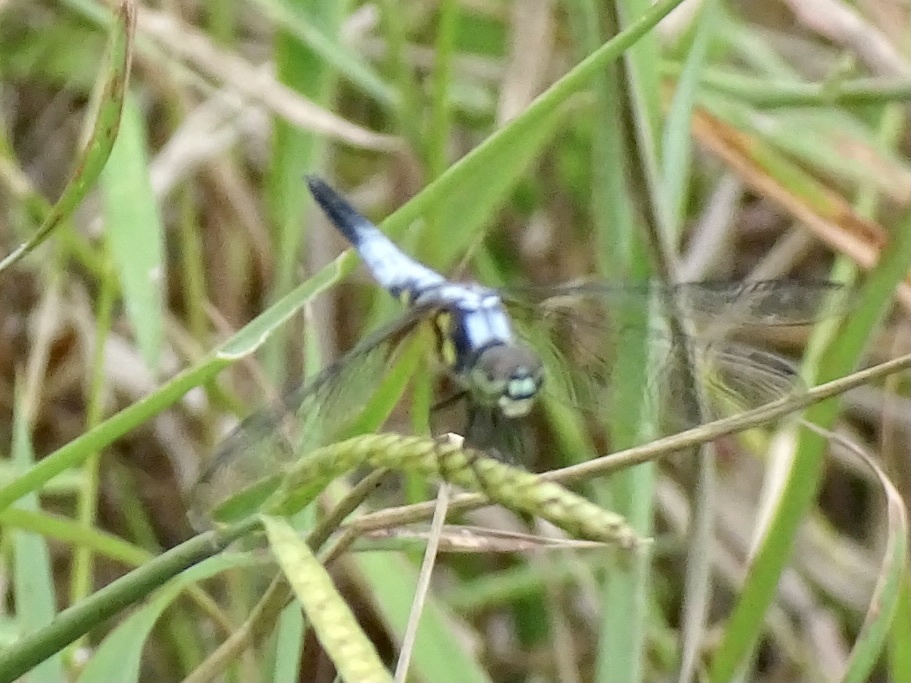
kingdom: Animalia
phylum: Arthropoda
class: Insecta
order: Odonata
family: Libellulidae
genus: Brachydiplax
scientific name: Brachydiplax chalybea
